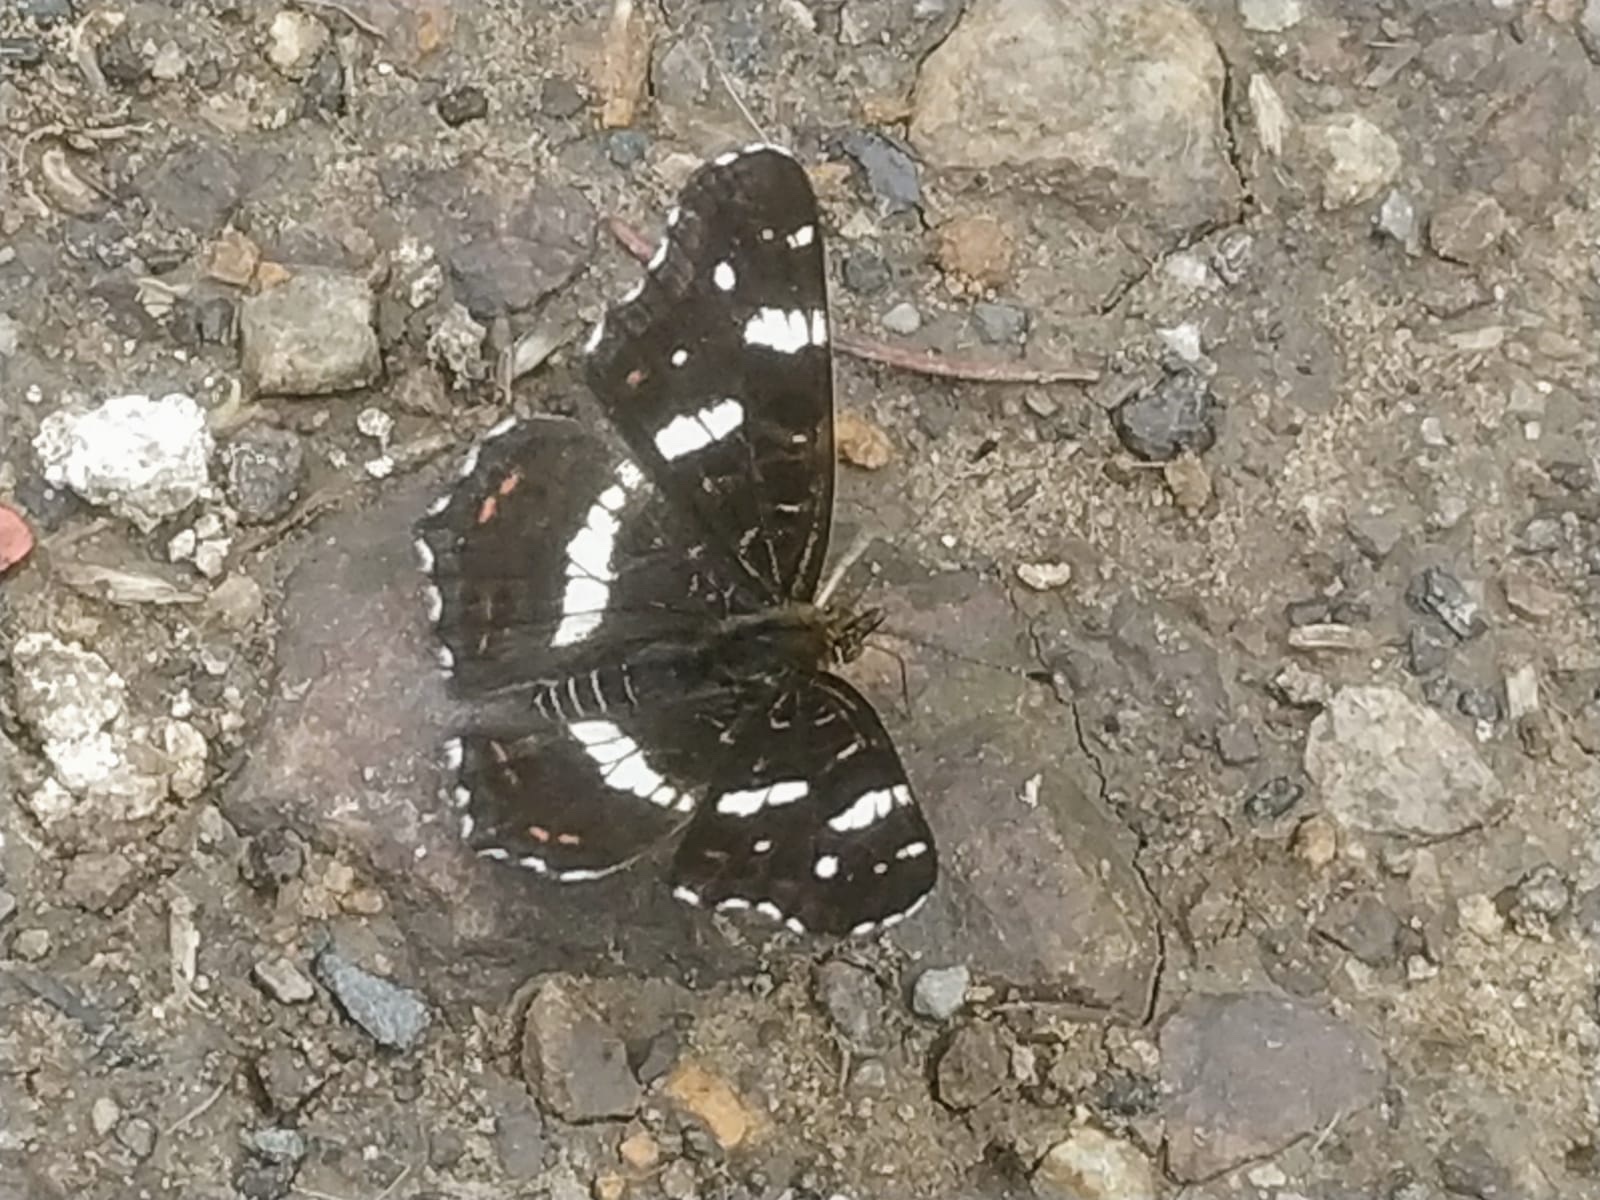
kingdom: Animalia
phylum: Arthropoda
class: Insecta
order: Lepidoptera
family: Nymphalidae
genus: Araschnia
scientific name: Araschnia levana
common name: Map butterfly
